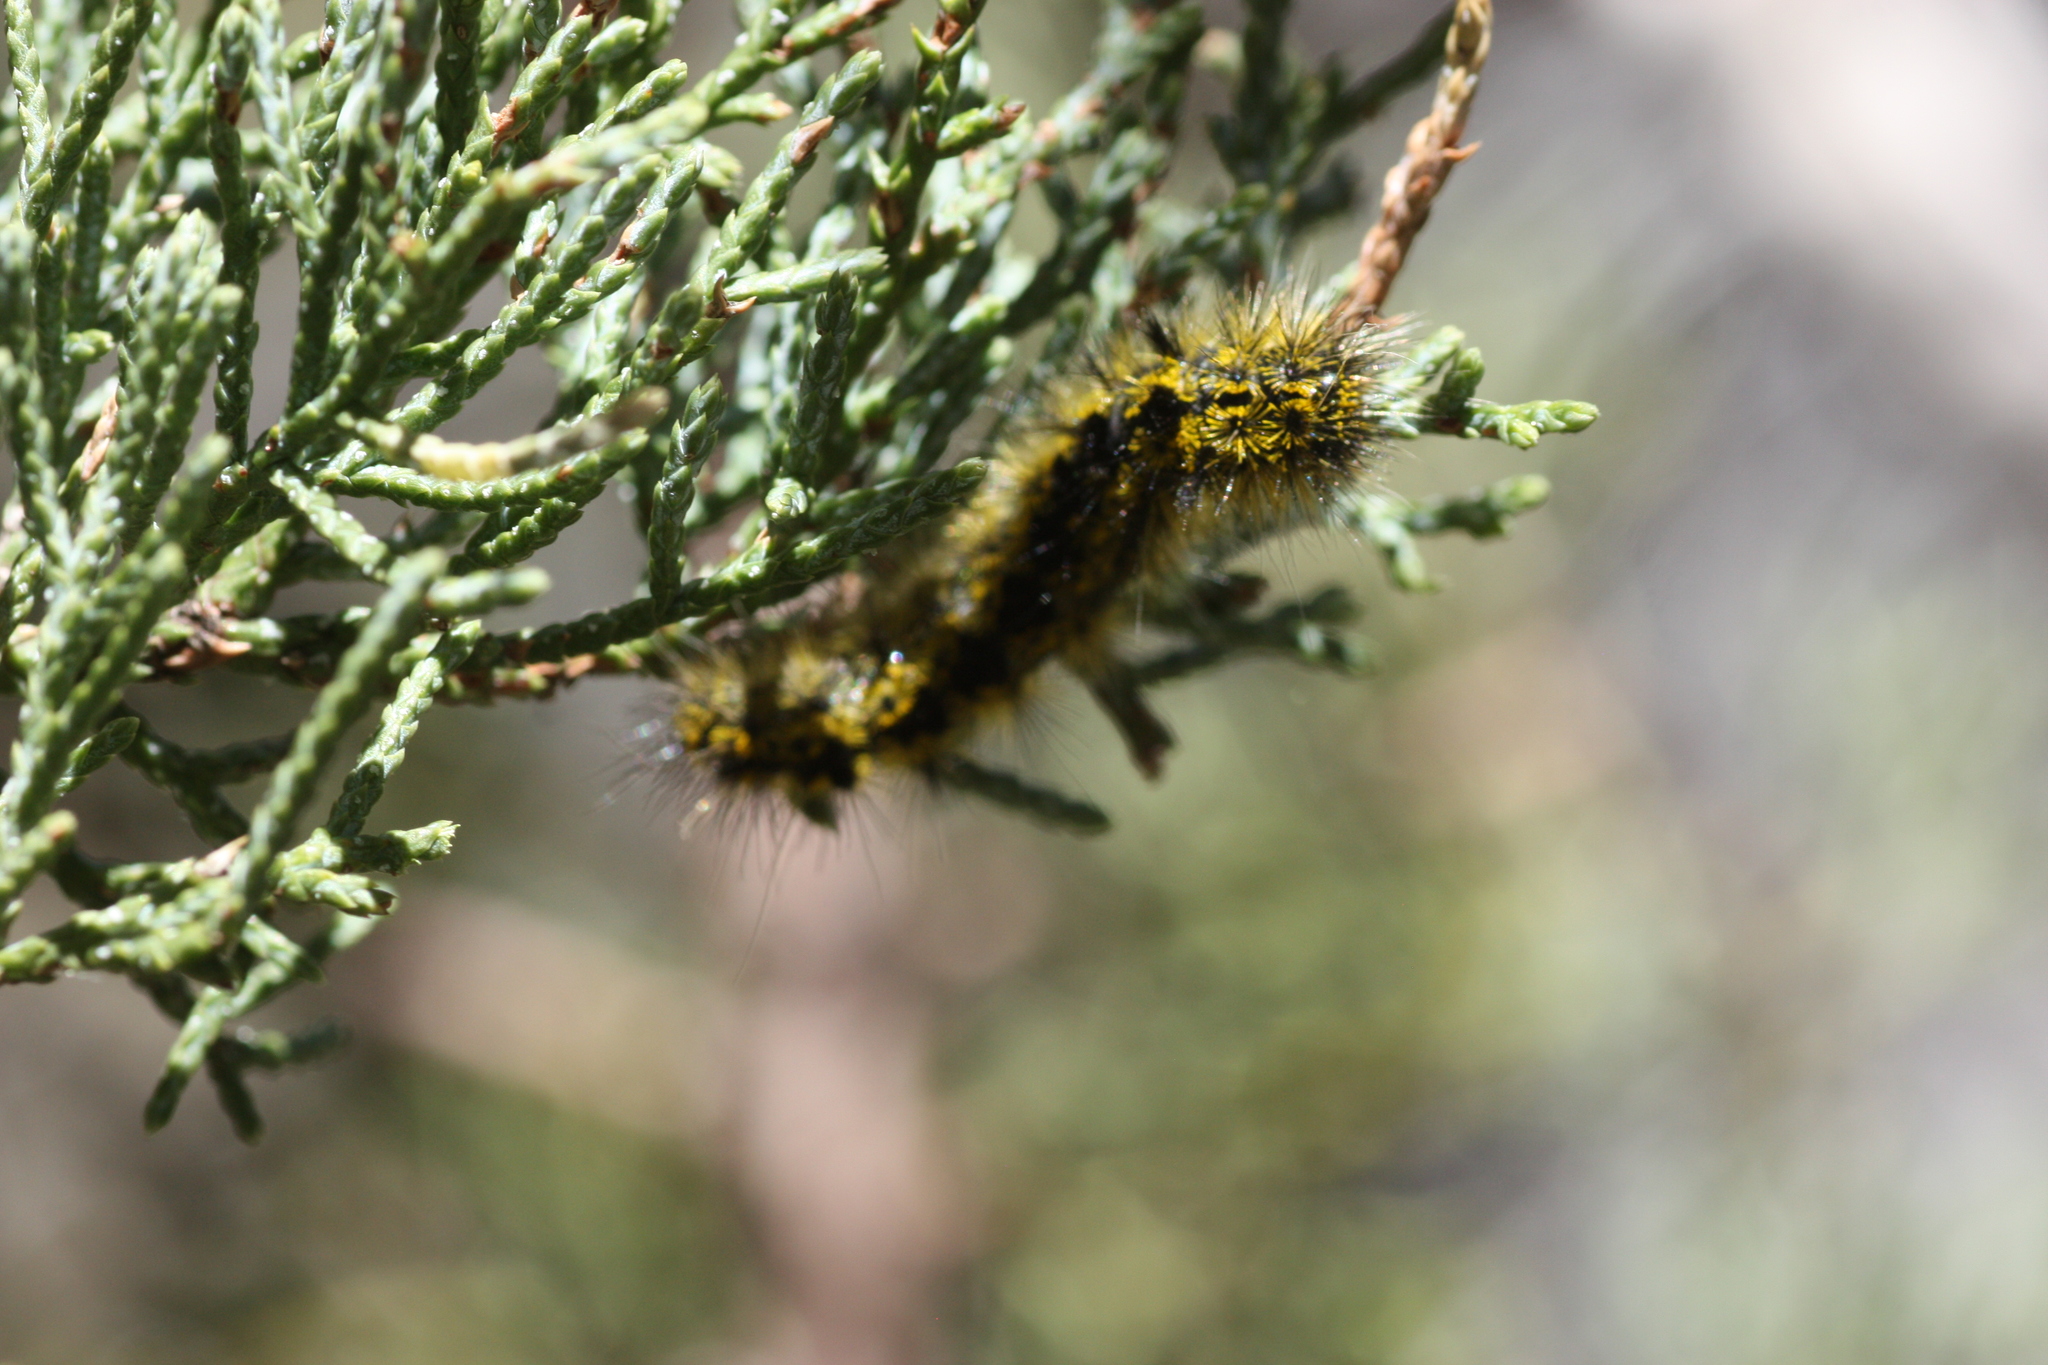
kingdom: Animalia
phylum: Arthropoda
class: Insecta
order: Lepidoptera
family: Erebidae
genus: Lophocampa
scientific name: Lophocampa argentata
